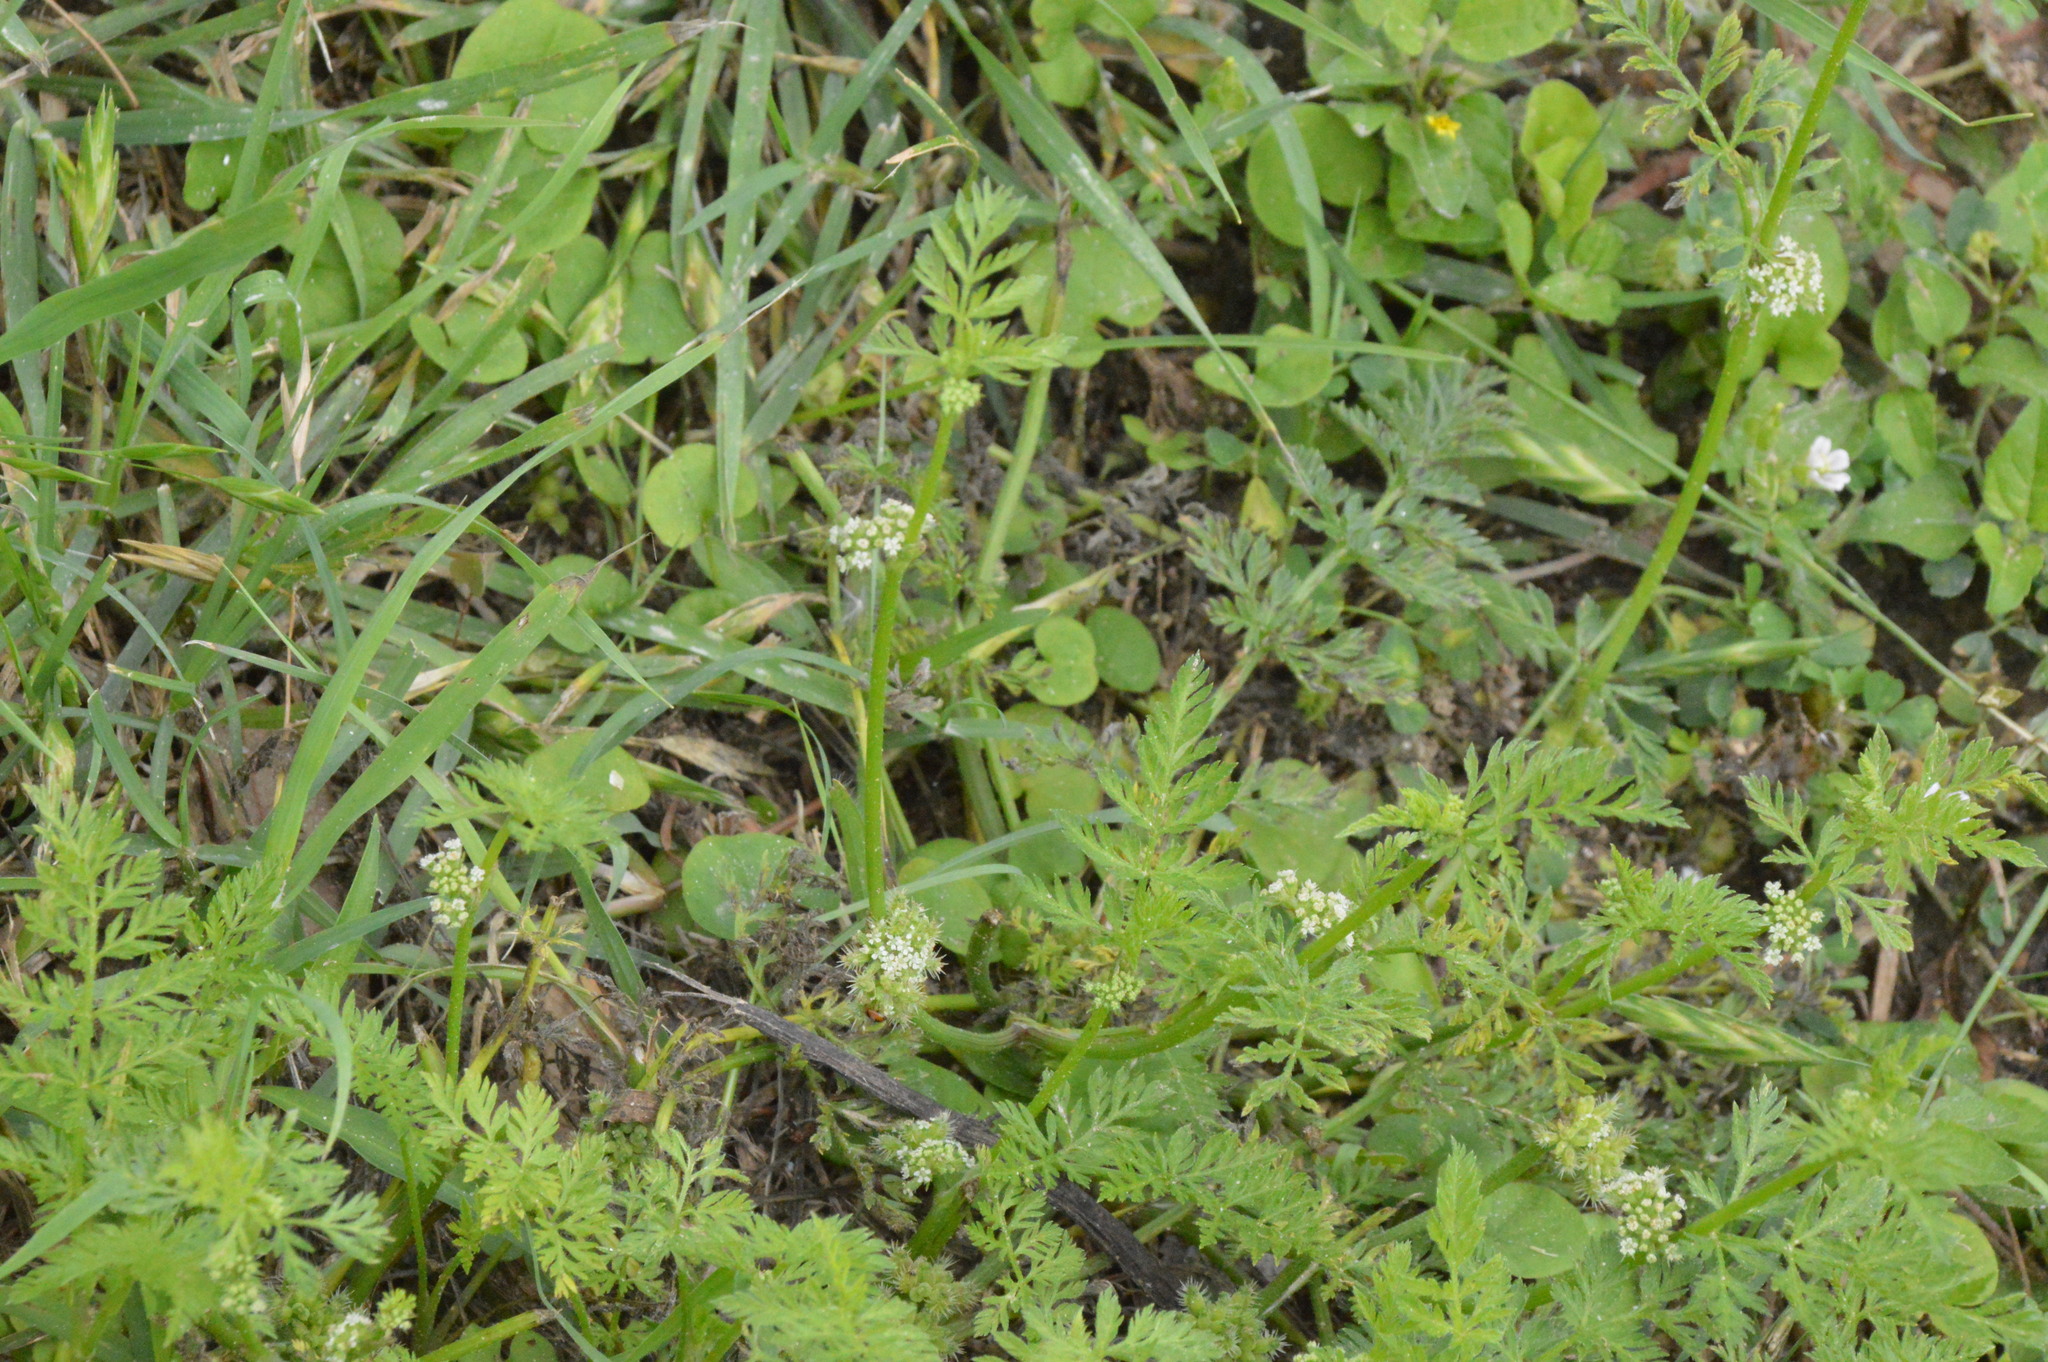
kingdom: Plantae
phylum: Tracheophyta
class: Magnoliopsida
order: Apiales
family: Apiaceae
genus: Torilis
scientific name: Torilis nodosa
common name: Knotted hedge-parsley
